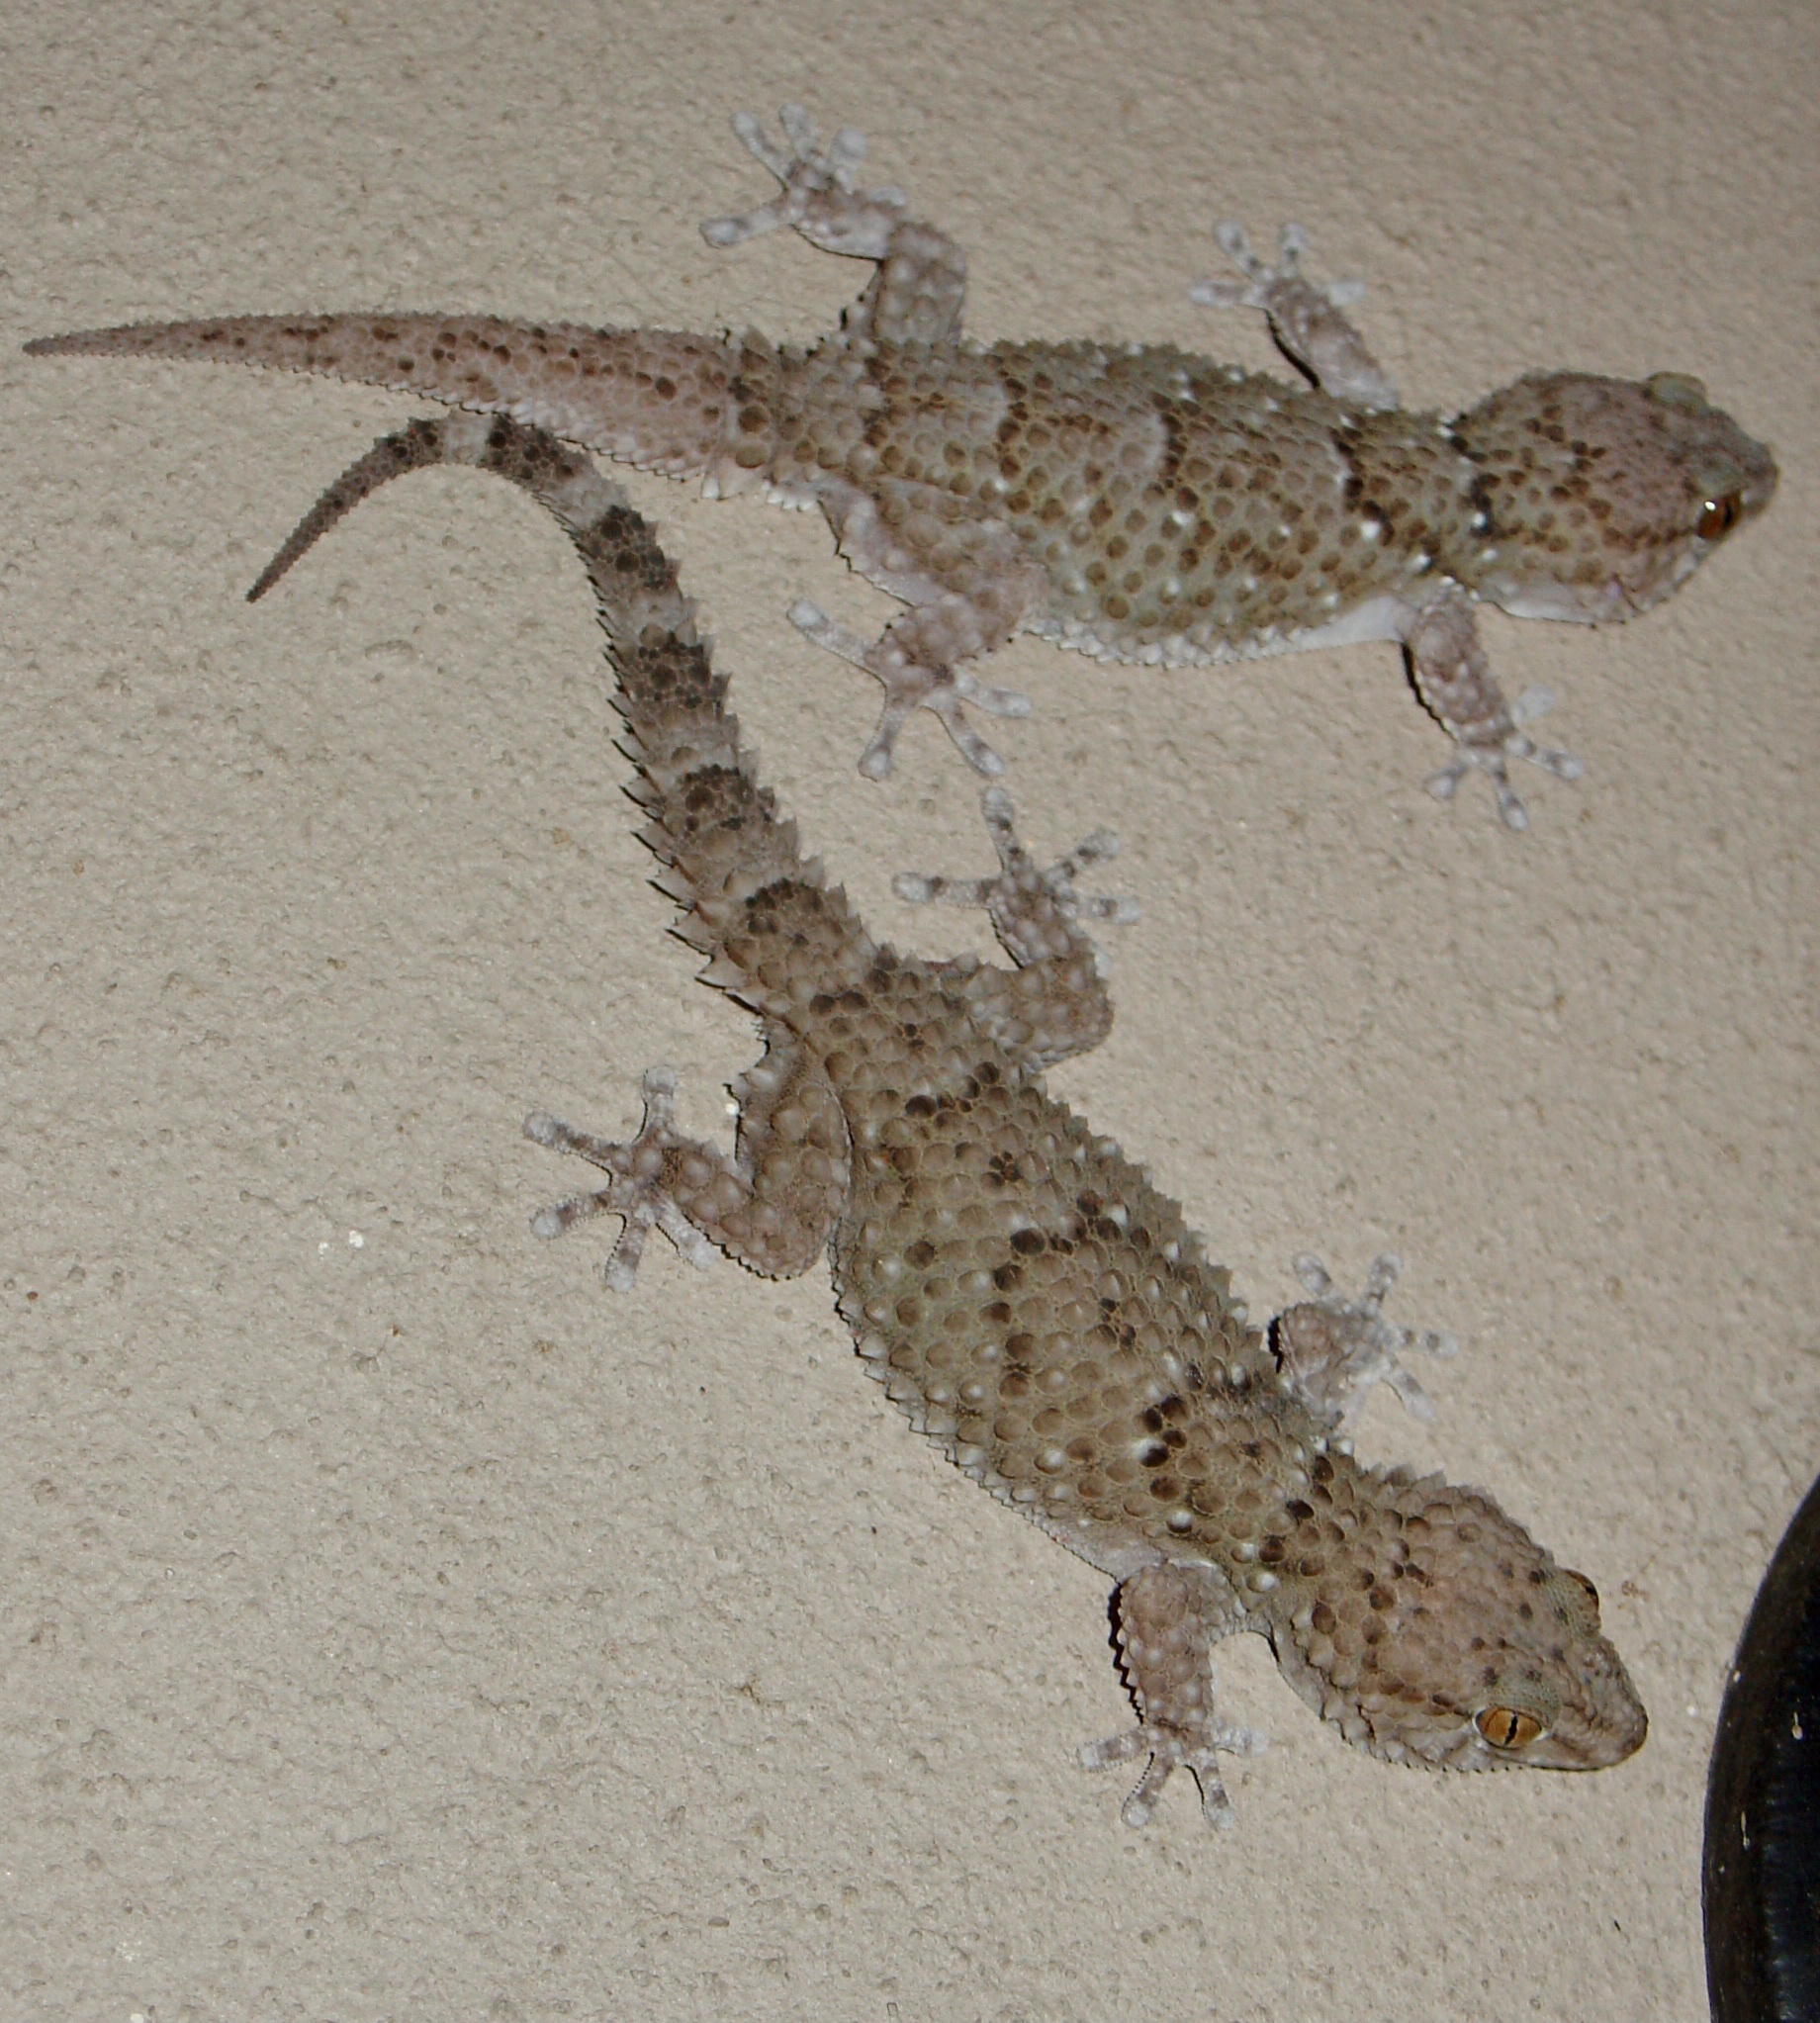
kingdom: Animalia
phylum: Chordata
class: Squamata
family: Gekkonidae
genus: Chondrodactylus
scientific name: Chondrodactylus bibronii
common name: Bibron's gecko
